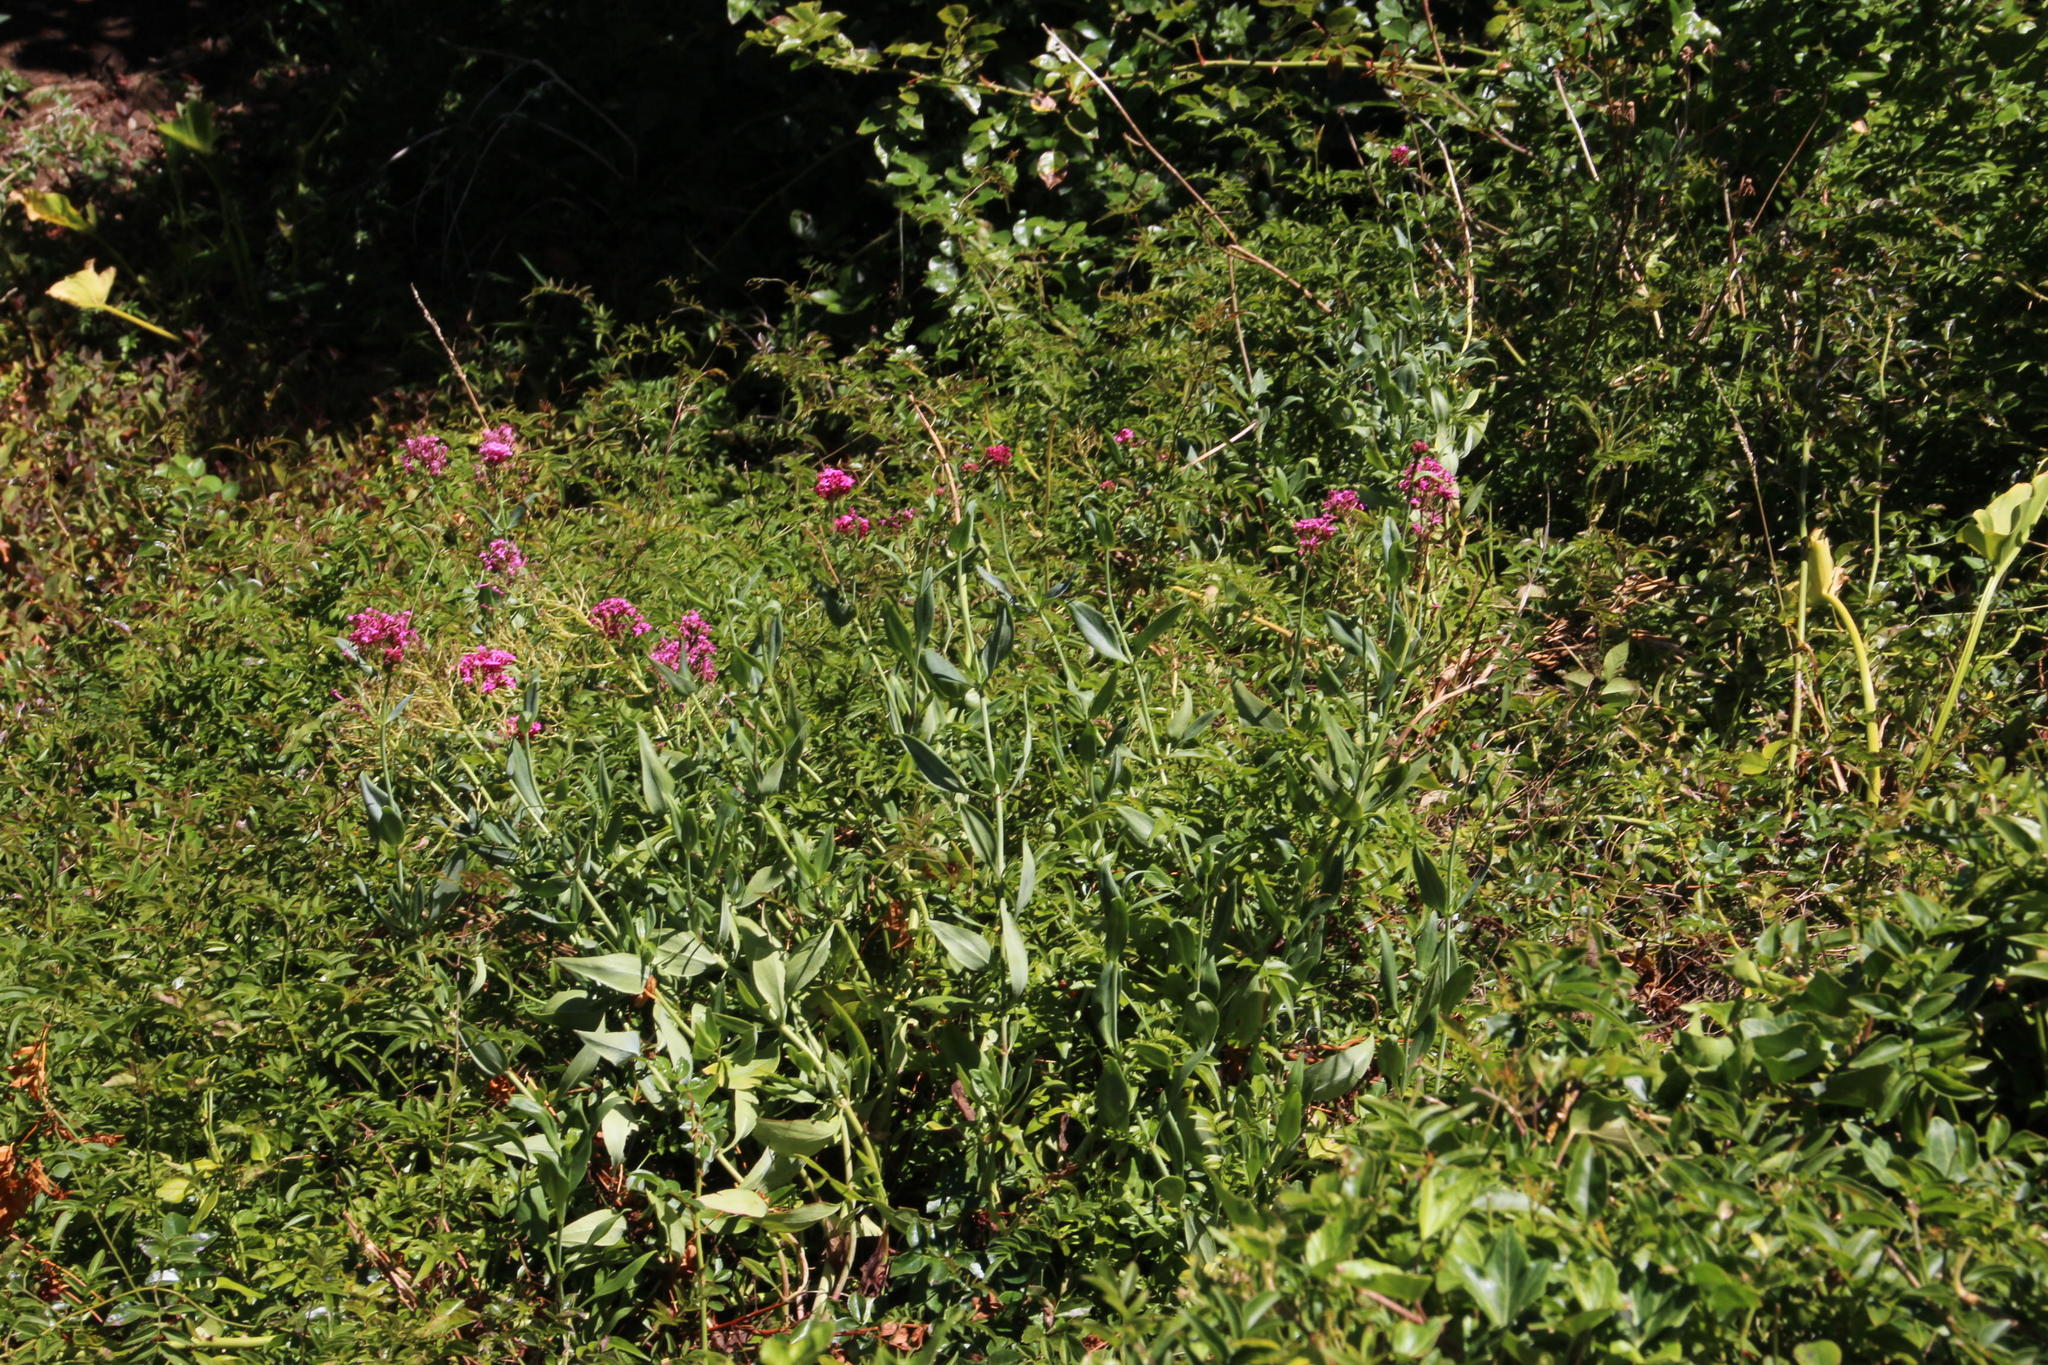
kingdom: Plantae
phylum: Tracheophyta
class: Magnoliopsida
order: Dipsacales
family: Caprifoliaceae
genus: Centranthus
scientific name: Centranthus ruber
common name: Red valerian
